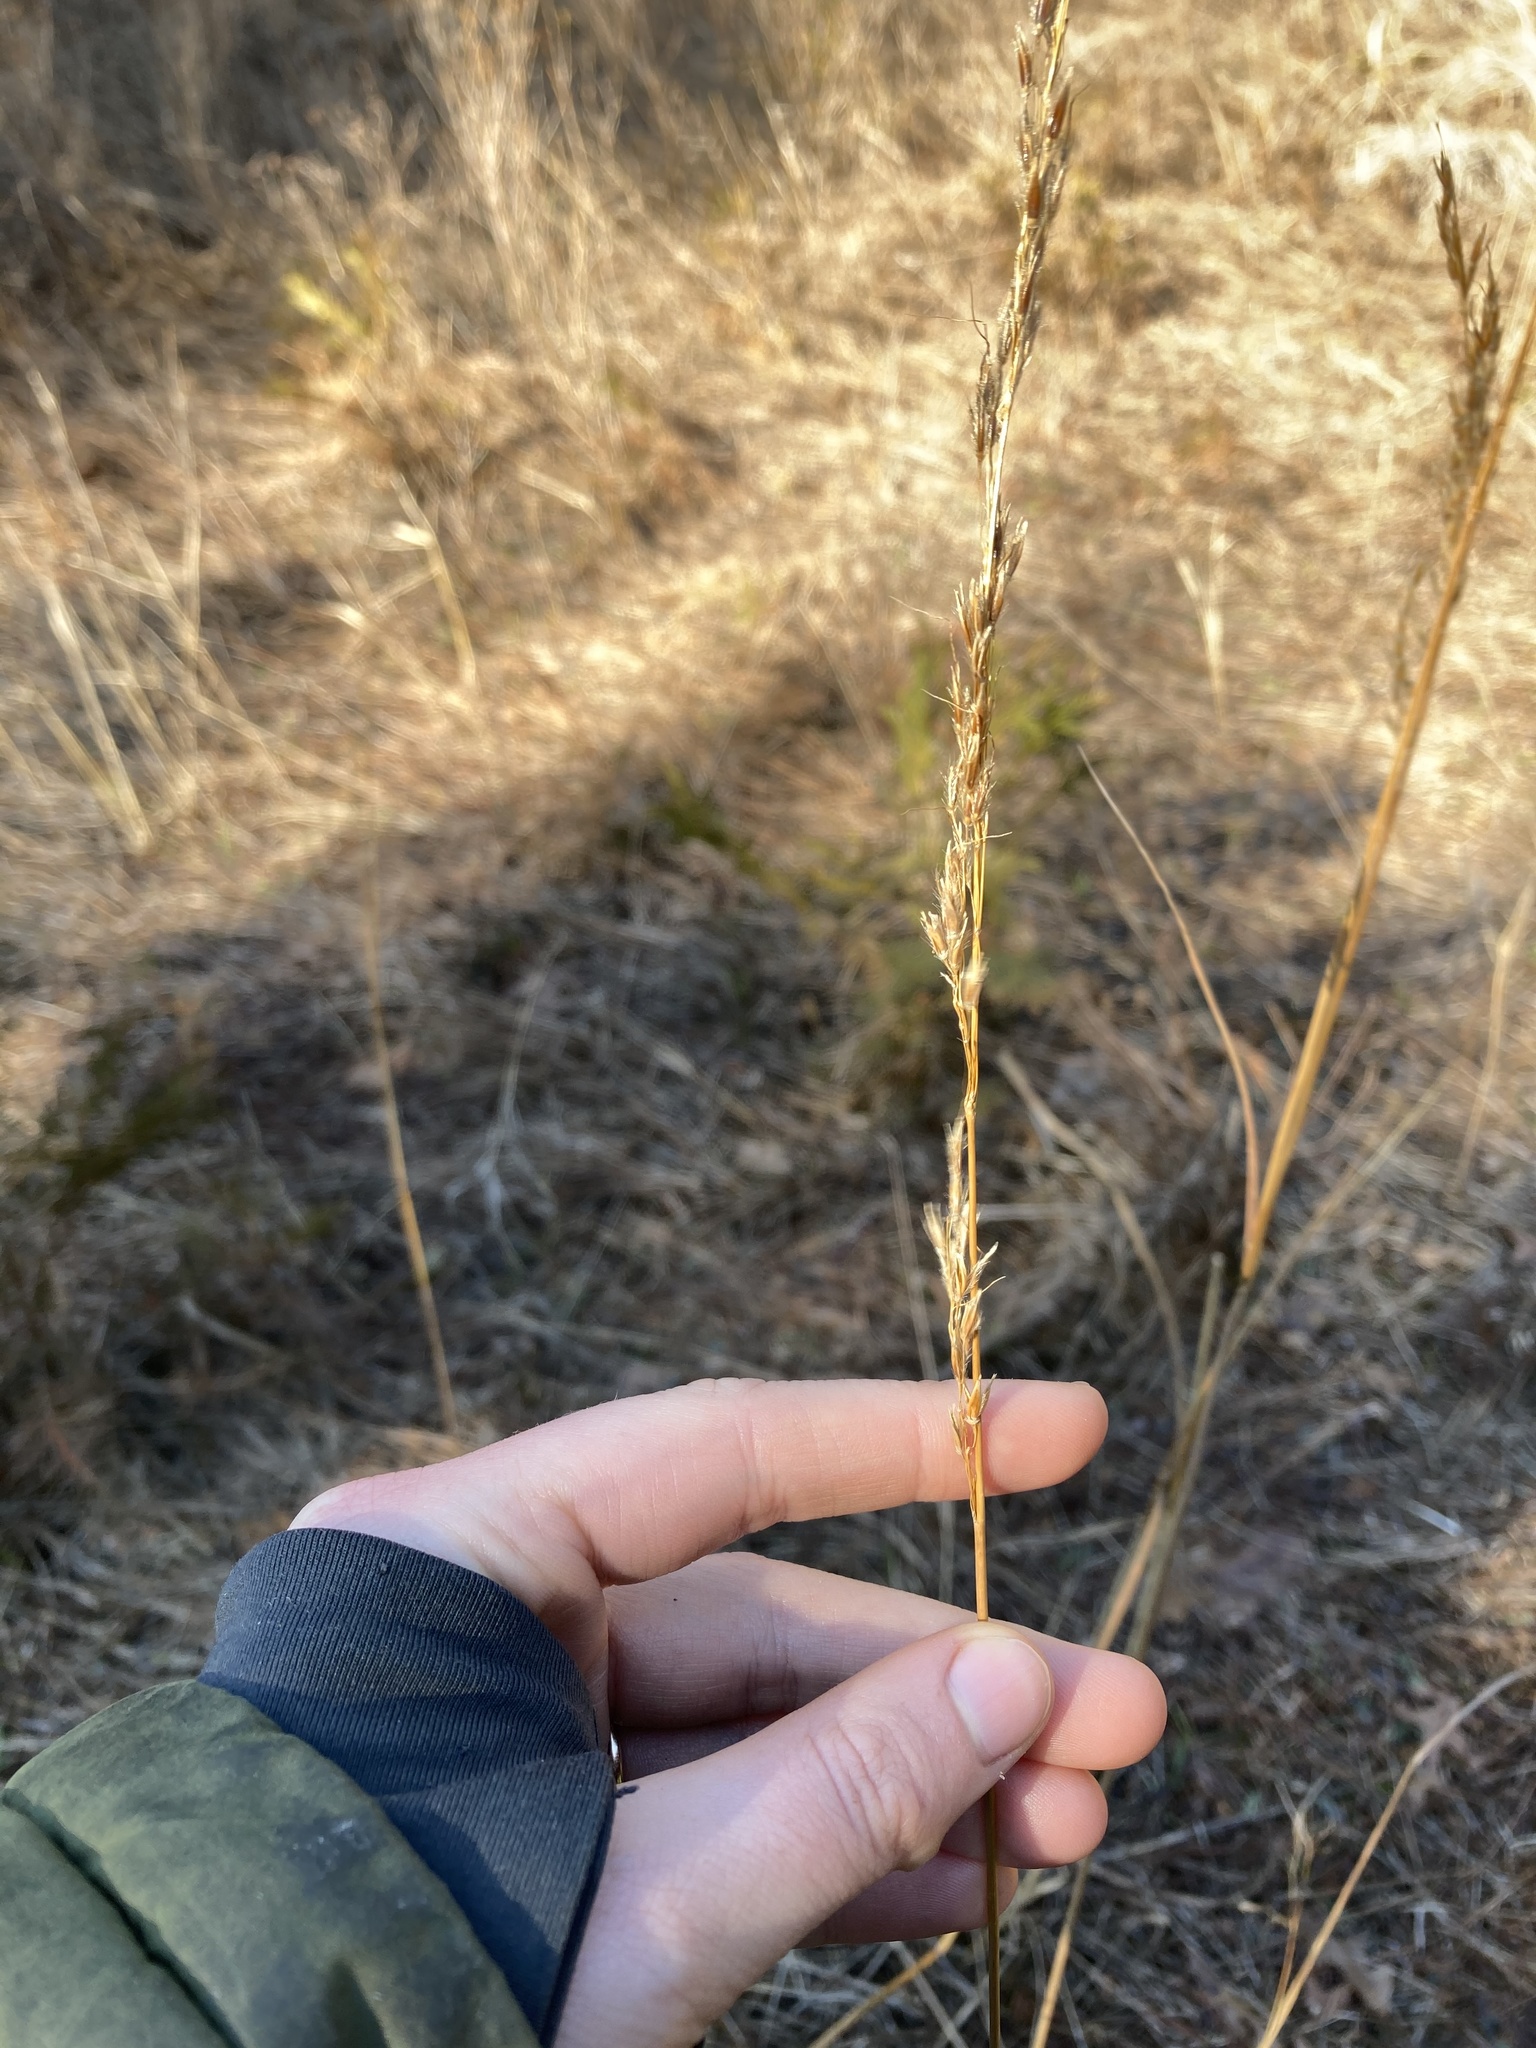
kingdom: Plantae
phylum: Tracheophyta
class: Liliopsida
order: Poales
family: Poaceae
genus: Sorghastrum
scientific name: Sorghastrum nutans
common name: Indian grass
